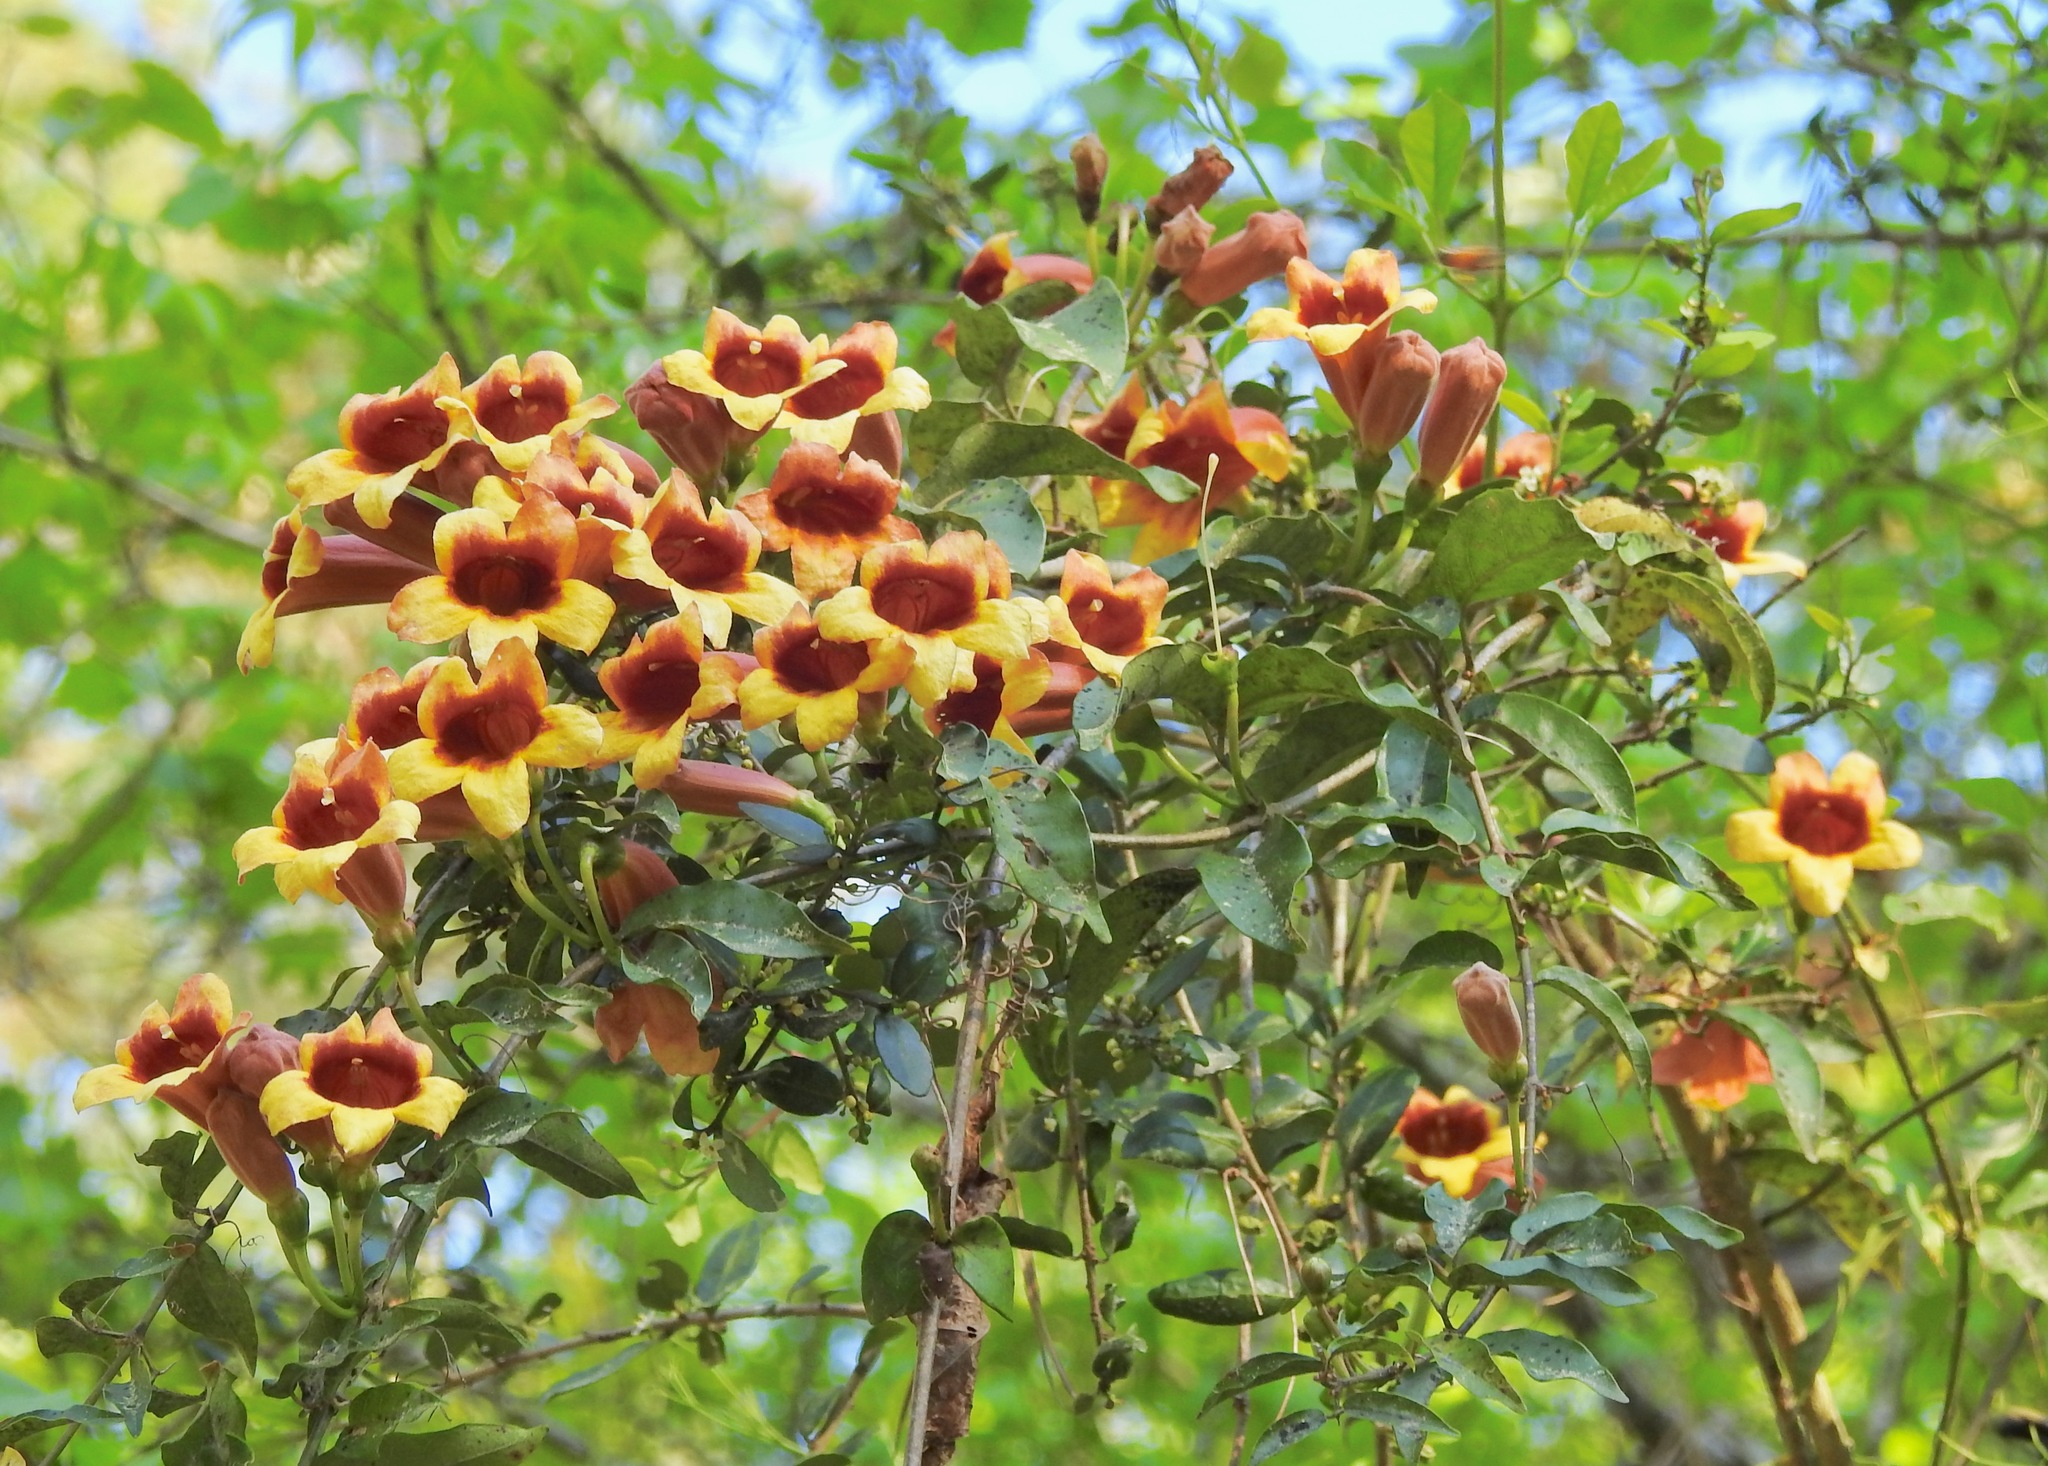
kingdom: Plantae
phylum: Tracheophyta
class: Magnoliopsida
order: Lamiales
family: Bignoniaceae
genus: Bignonia
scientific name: Bignonia capreolata
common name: Crossvine
